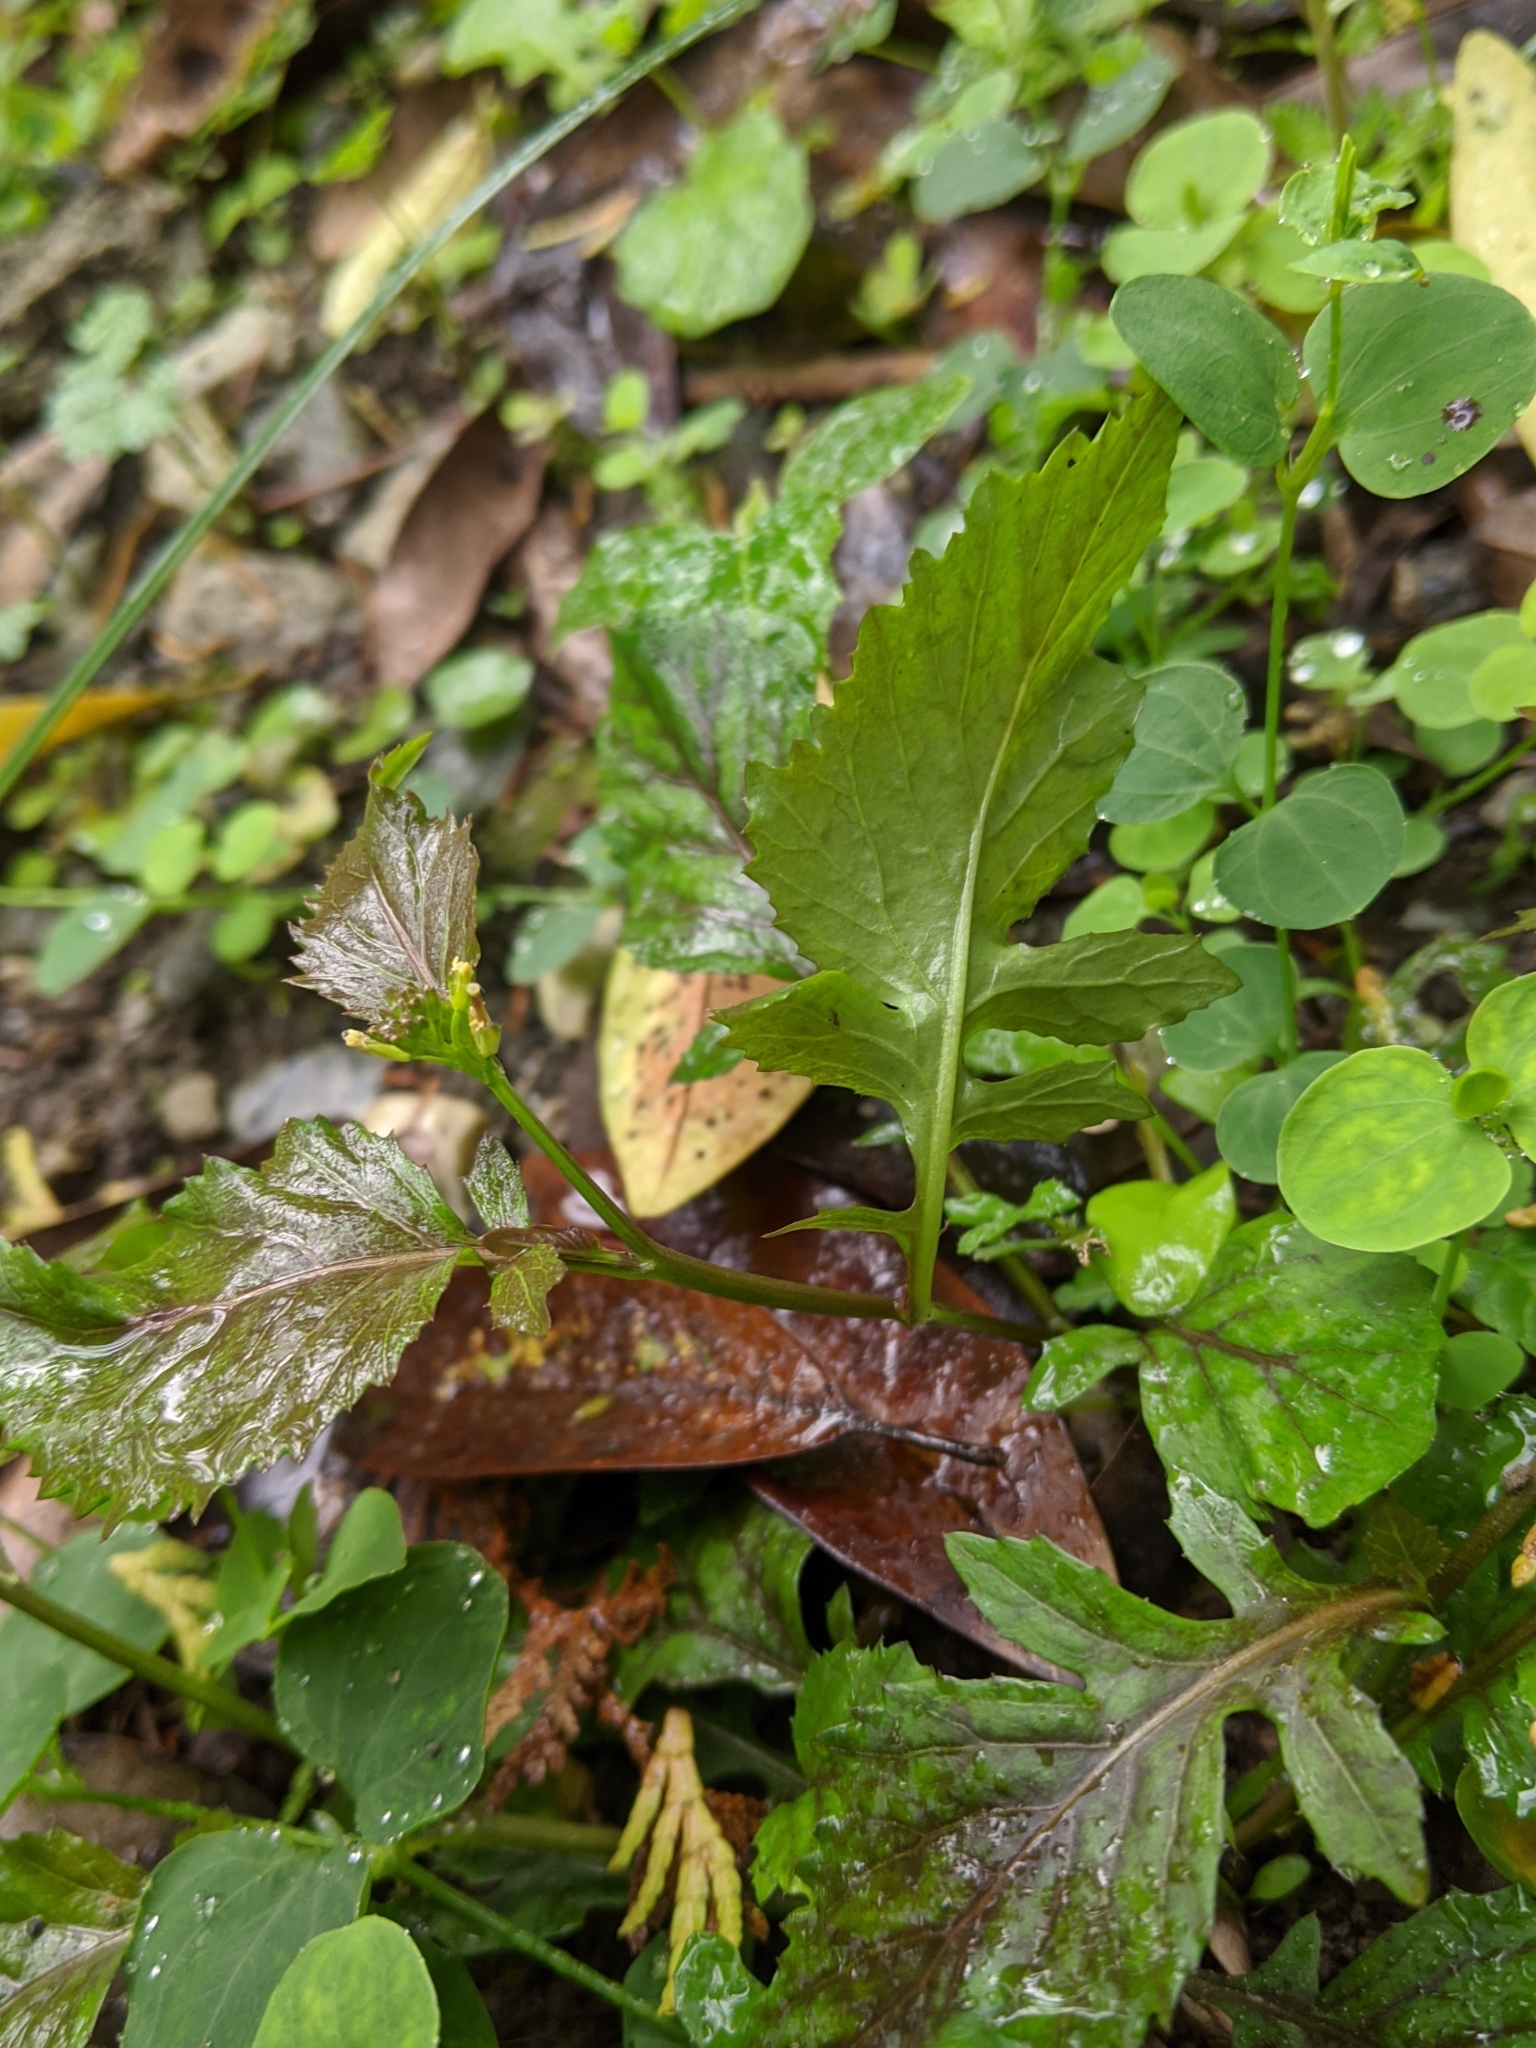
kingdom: Plantae
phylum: Tracheophyta
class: Magnoliopsida
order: Brassicales
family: Brassicaceae
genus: Rorippa
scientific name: Rorippa dubia
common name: Variableleaf yellowcress
